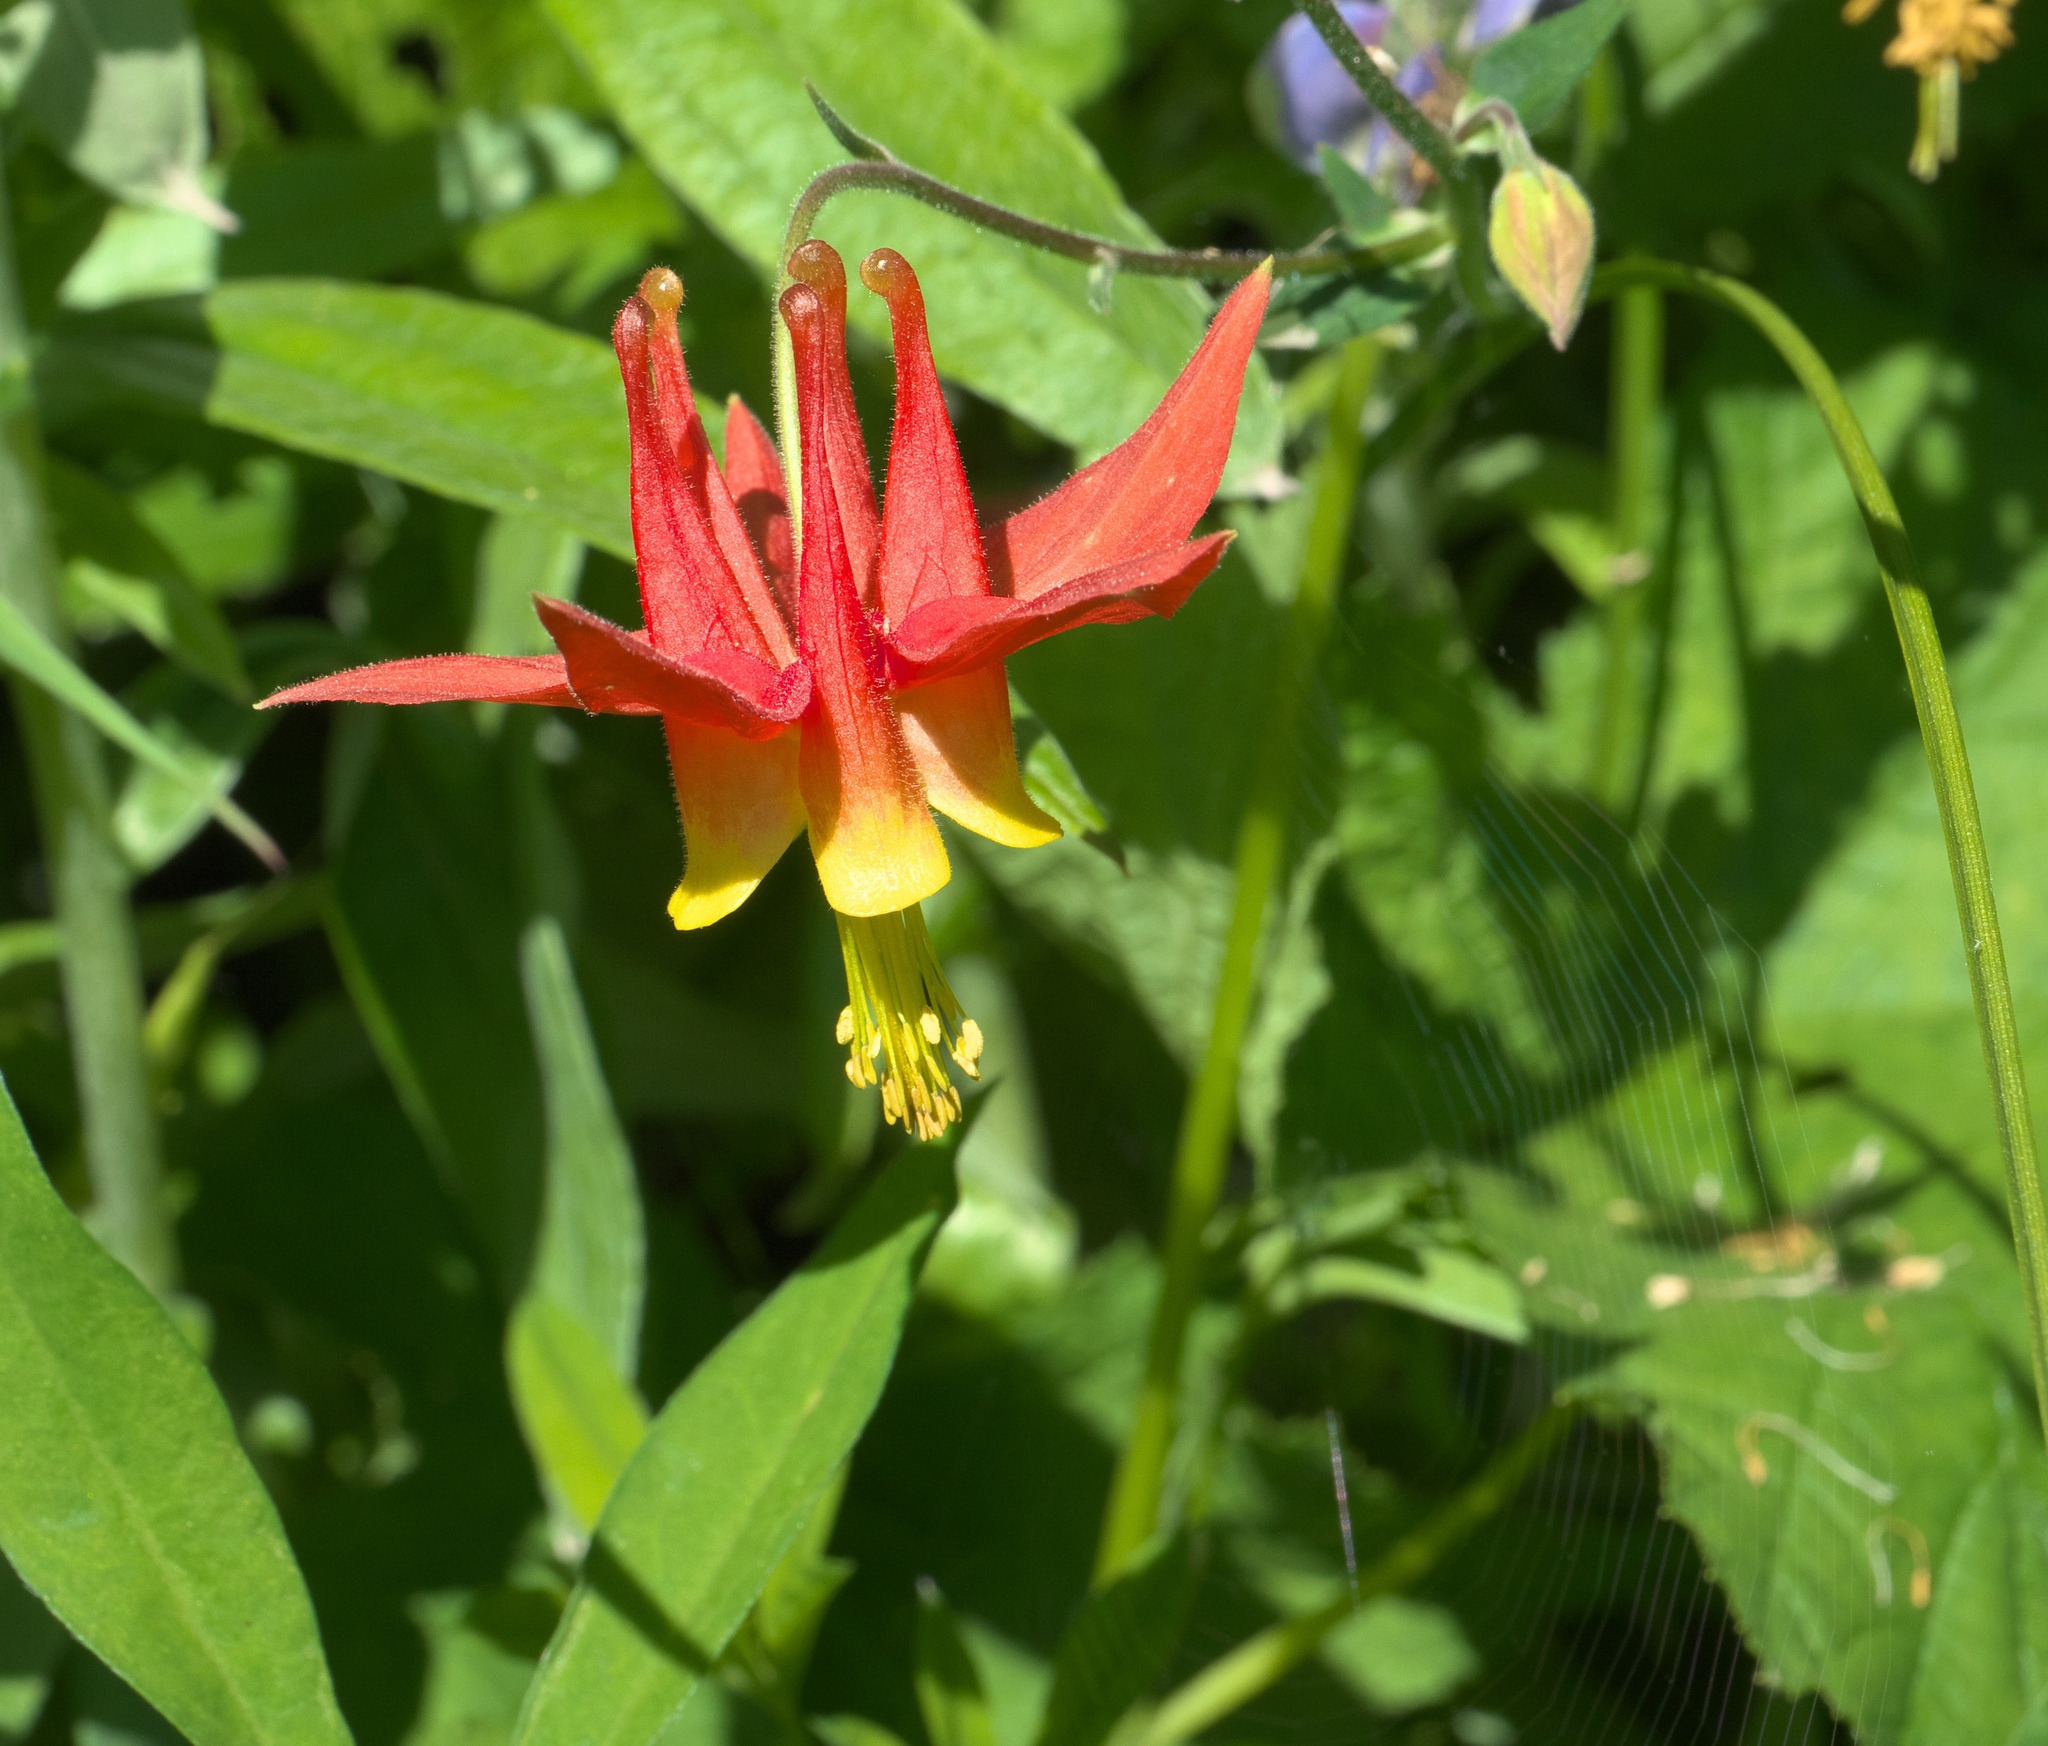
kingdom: Plantae
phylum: Tracheophyta
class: Magnoliopsida
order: Ranunculales
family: Ranunculaceae
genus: Aquilegia
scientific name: Aquilegia formosa
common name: Sitka columbine
